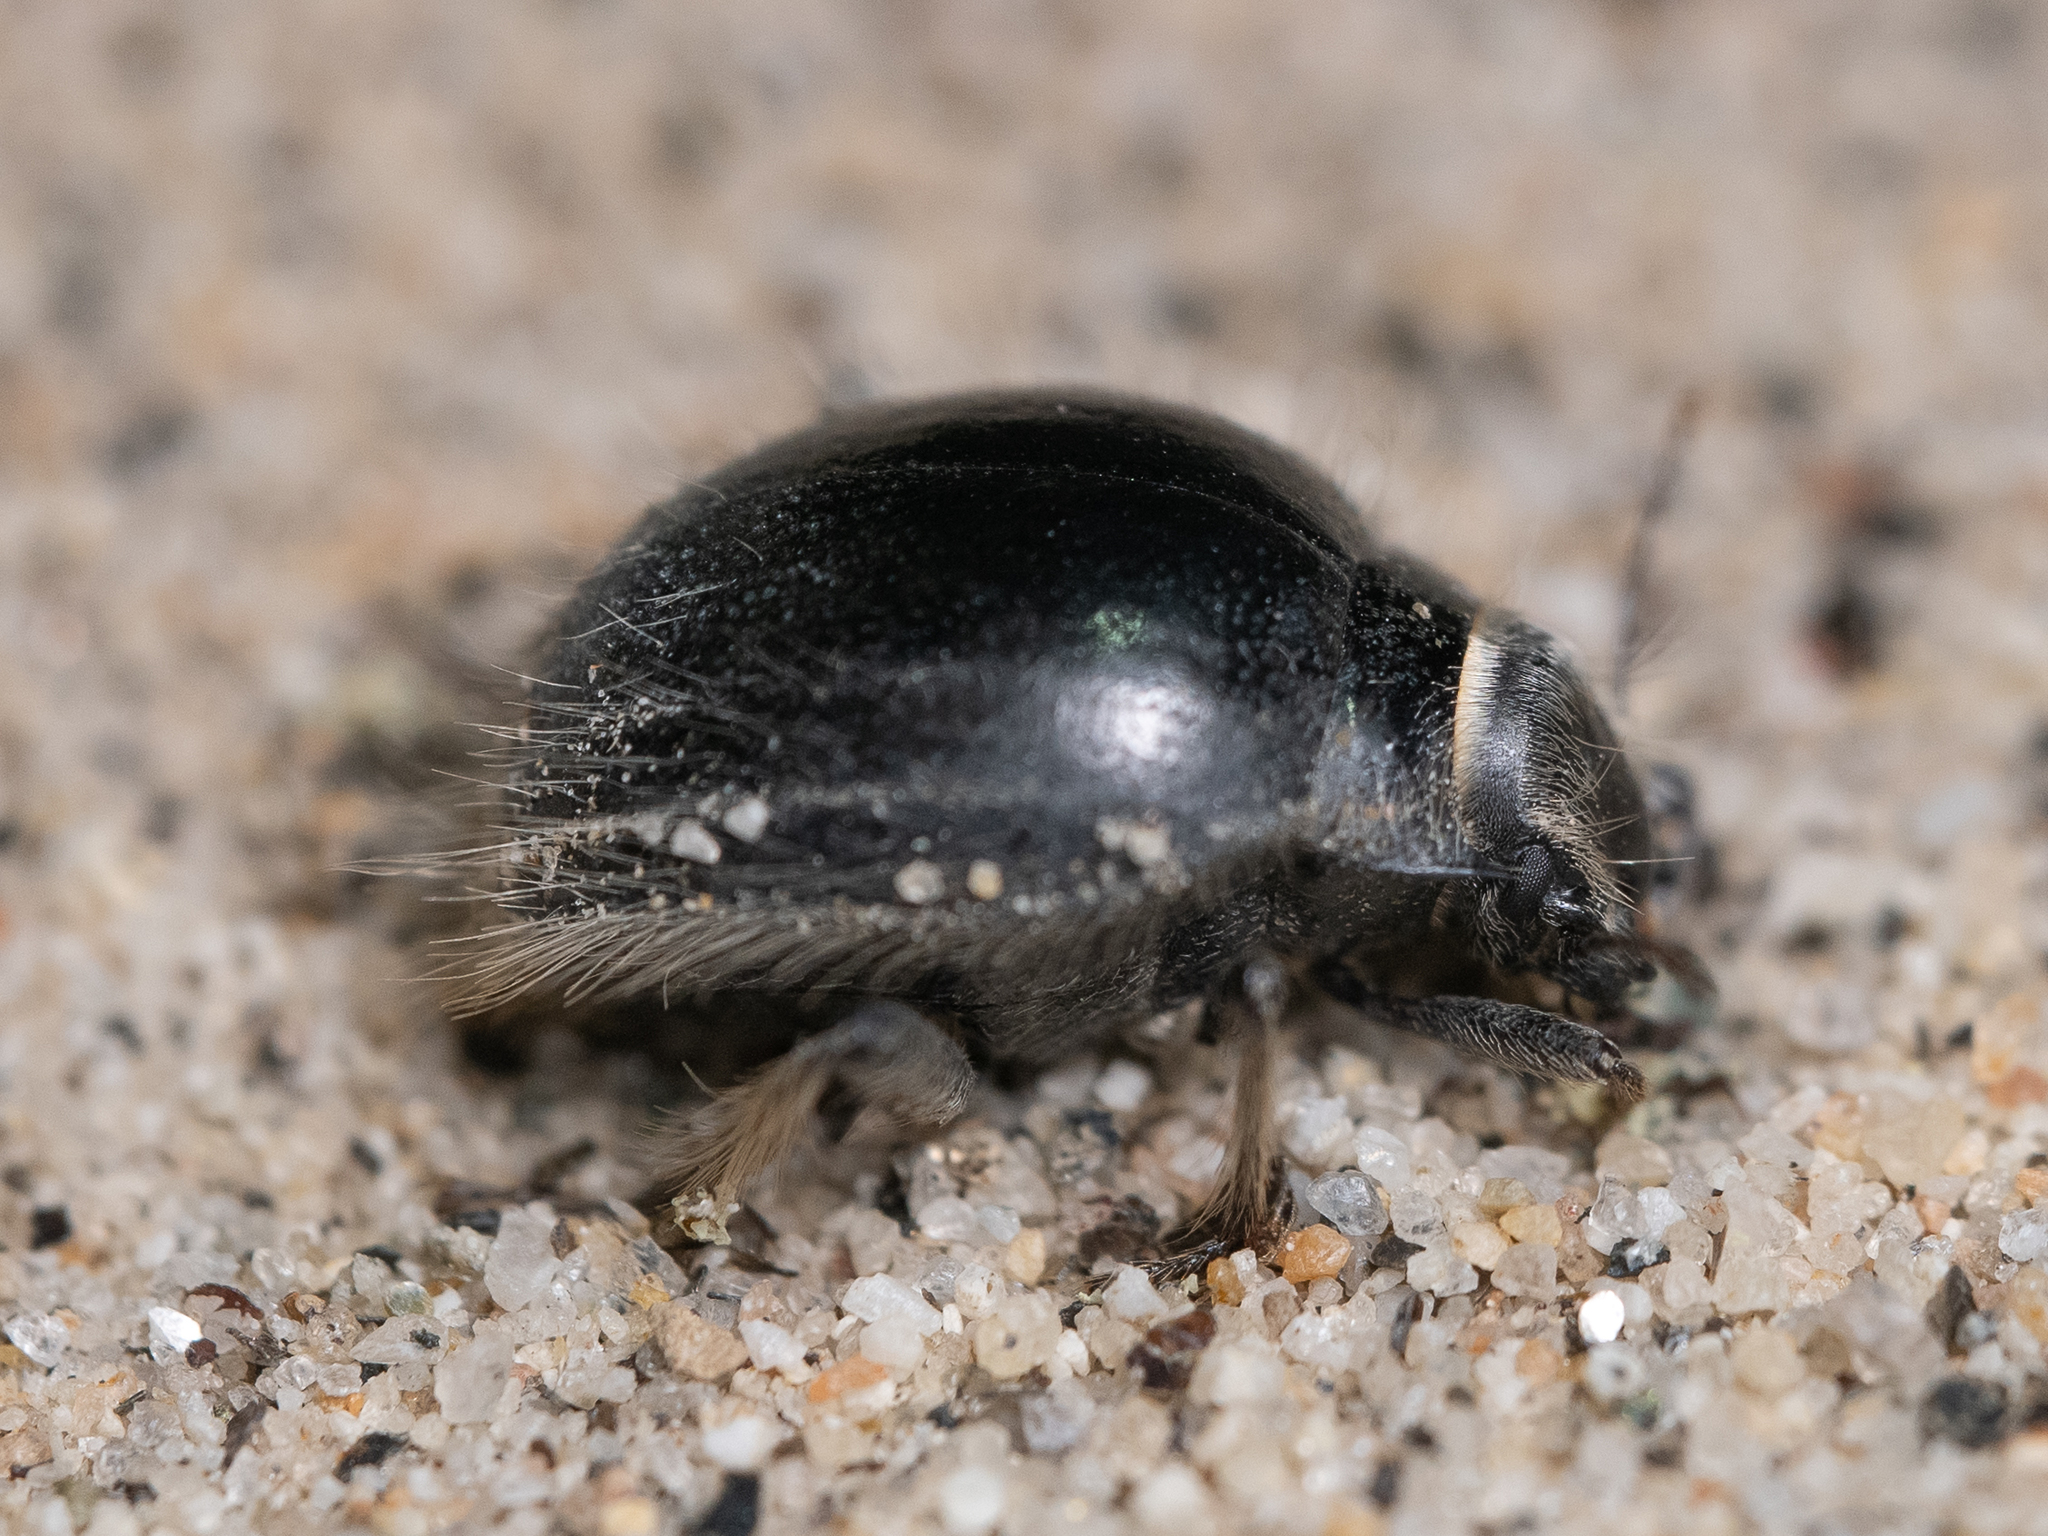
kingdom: Animalia
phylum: Arthropoda
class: Insecta
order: Coleoptera
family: Tenebrionidae
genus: Edrotes
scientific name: Edrotes ventricosus
